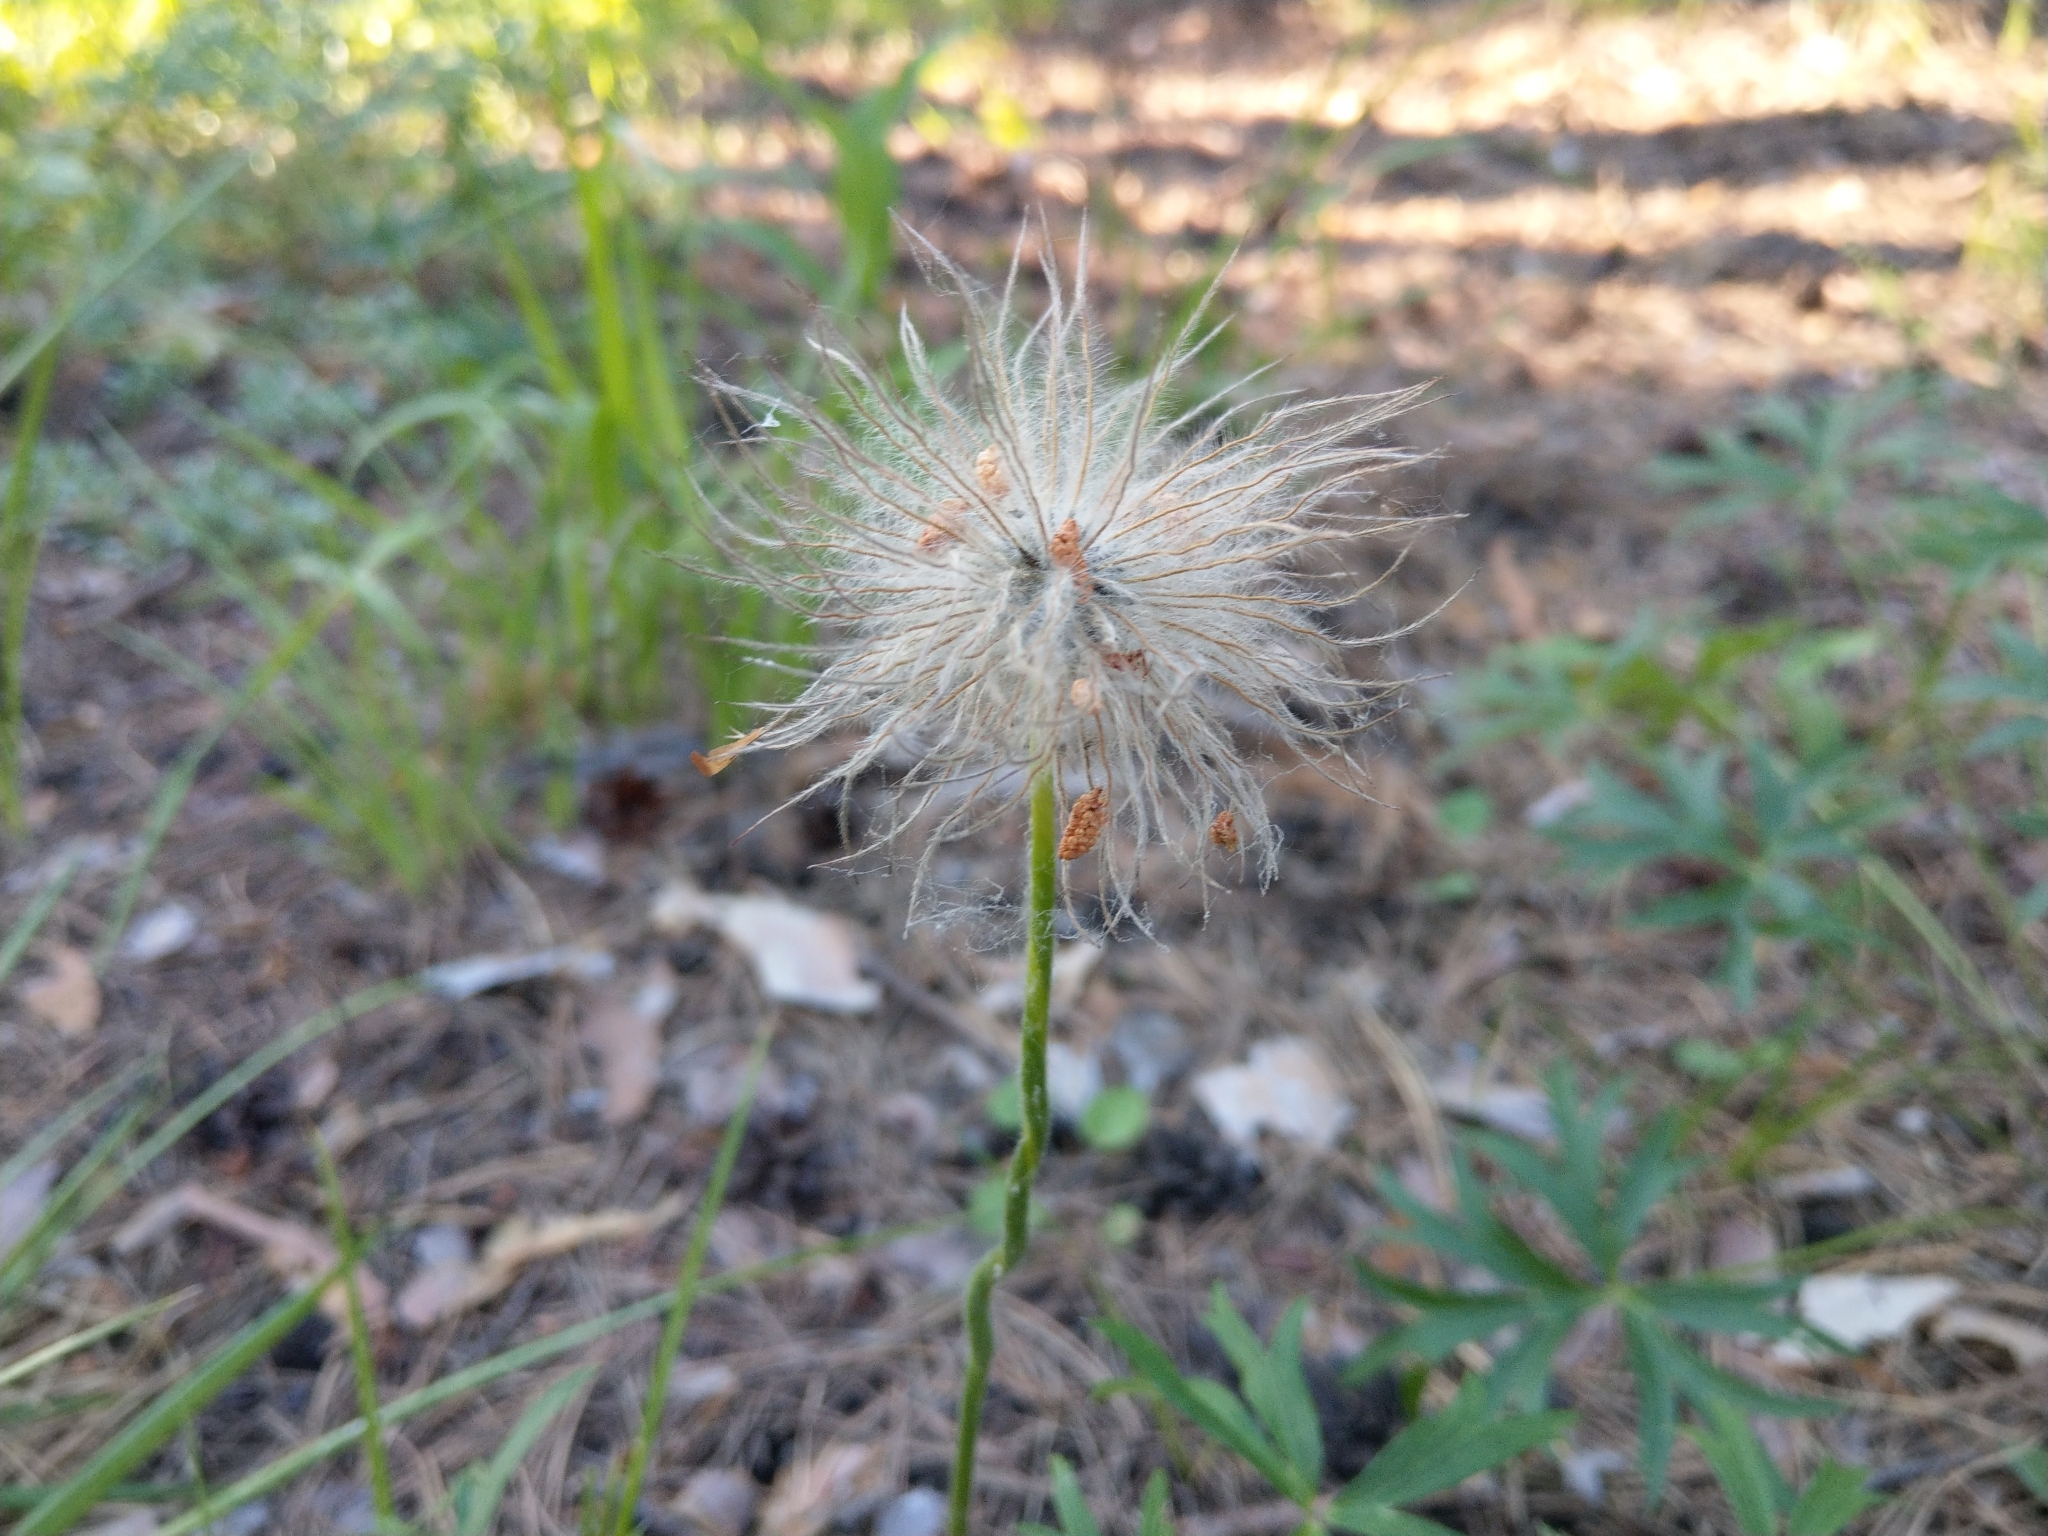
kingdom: Plantae
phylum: Tracheophyta
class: Magnoliopsida
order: Ranunculales
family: Ranunculaceae
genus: Pulsatilla
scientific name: Pulsatilla patens
